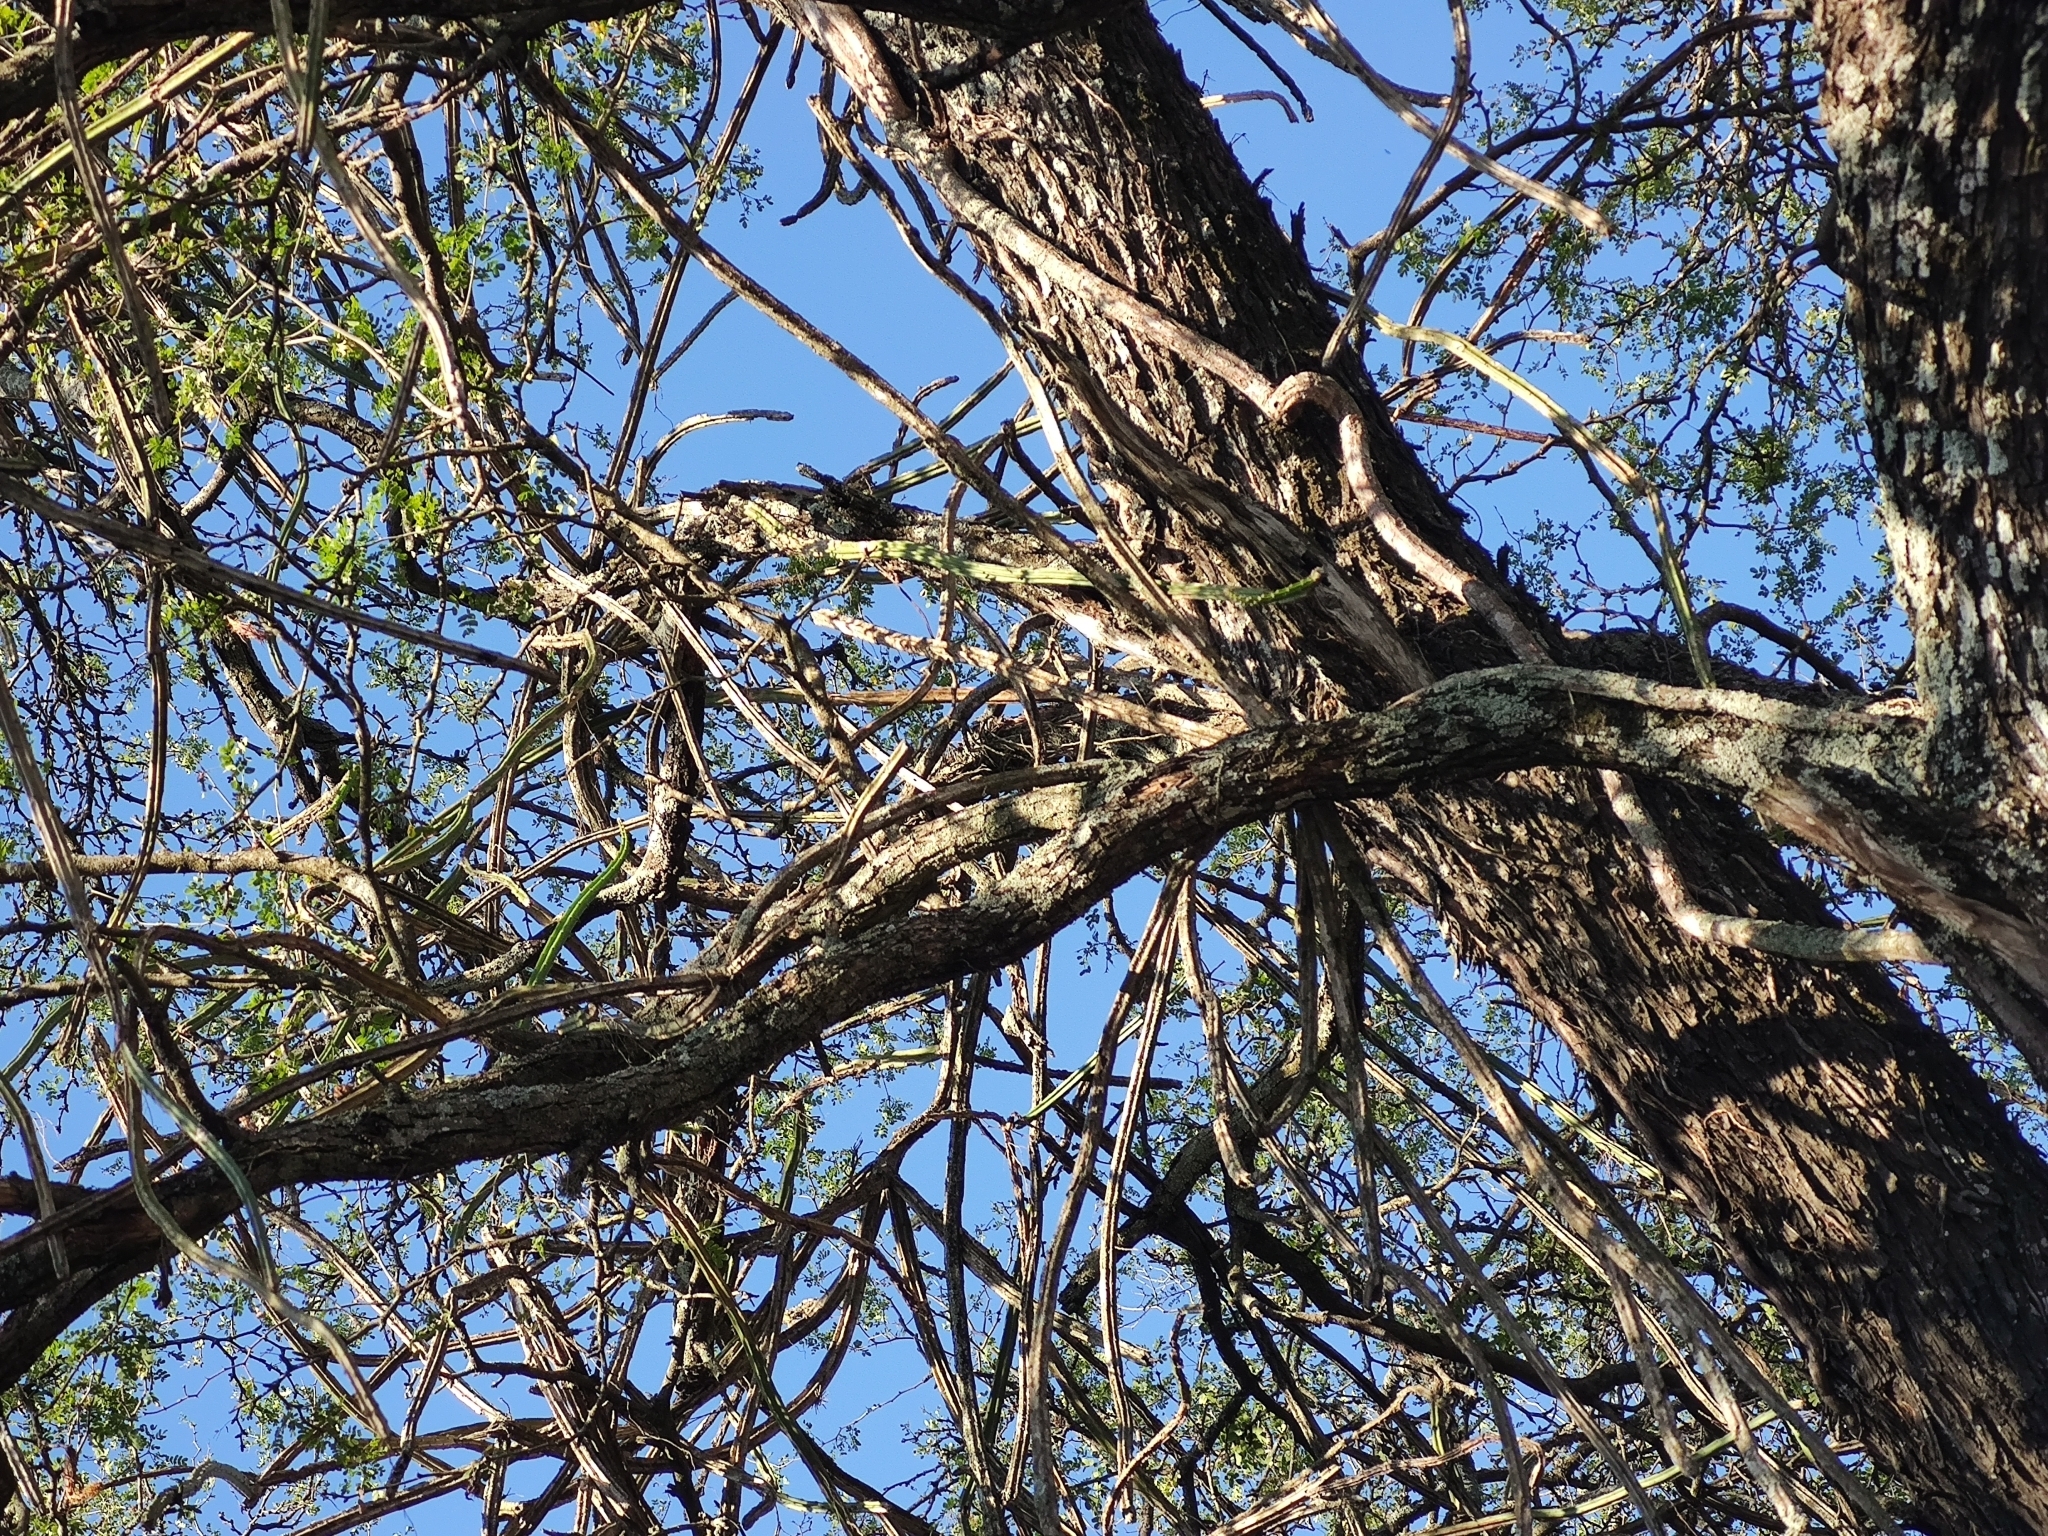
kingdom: Plantae
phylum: Tracheophyta
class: Magnoliopsida
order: Caryophyllales
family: Cactaceae
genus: Selenicereus
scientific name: Selenicereus spinulosus
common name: Nightblooming cereus
